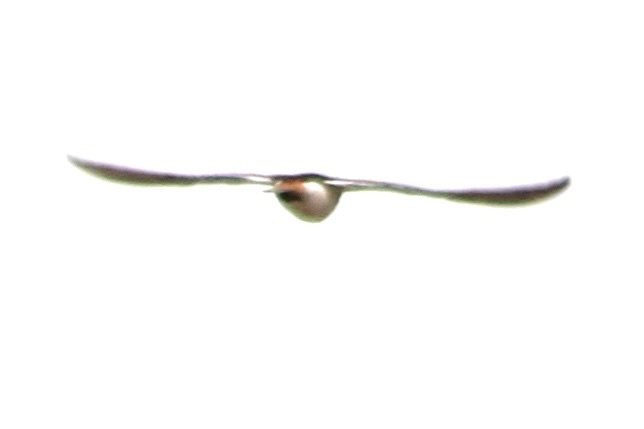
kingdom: Animalia
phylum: Chordata
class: Aves
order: Passeriformes
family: Hirundinidae
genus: Hirundo
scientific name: Hirundo rustica
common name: Barn swallow
